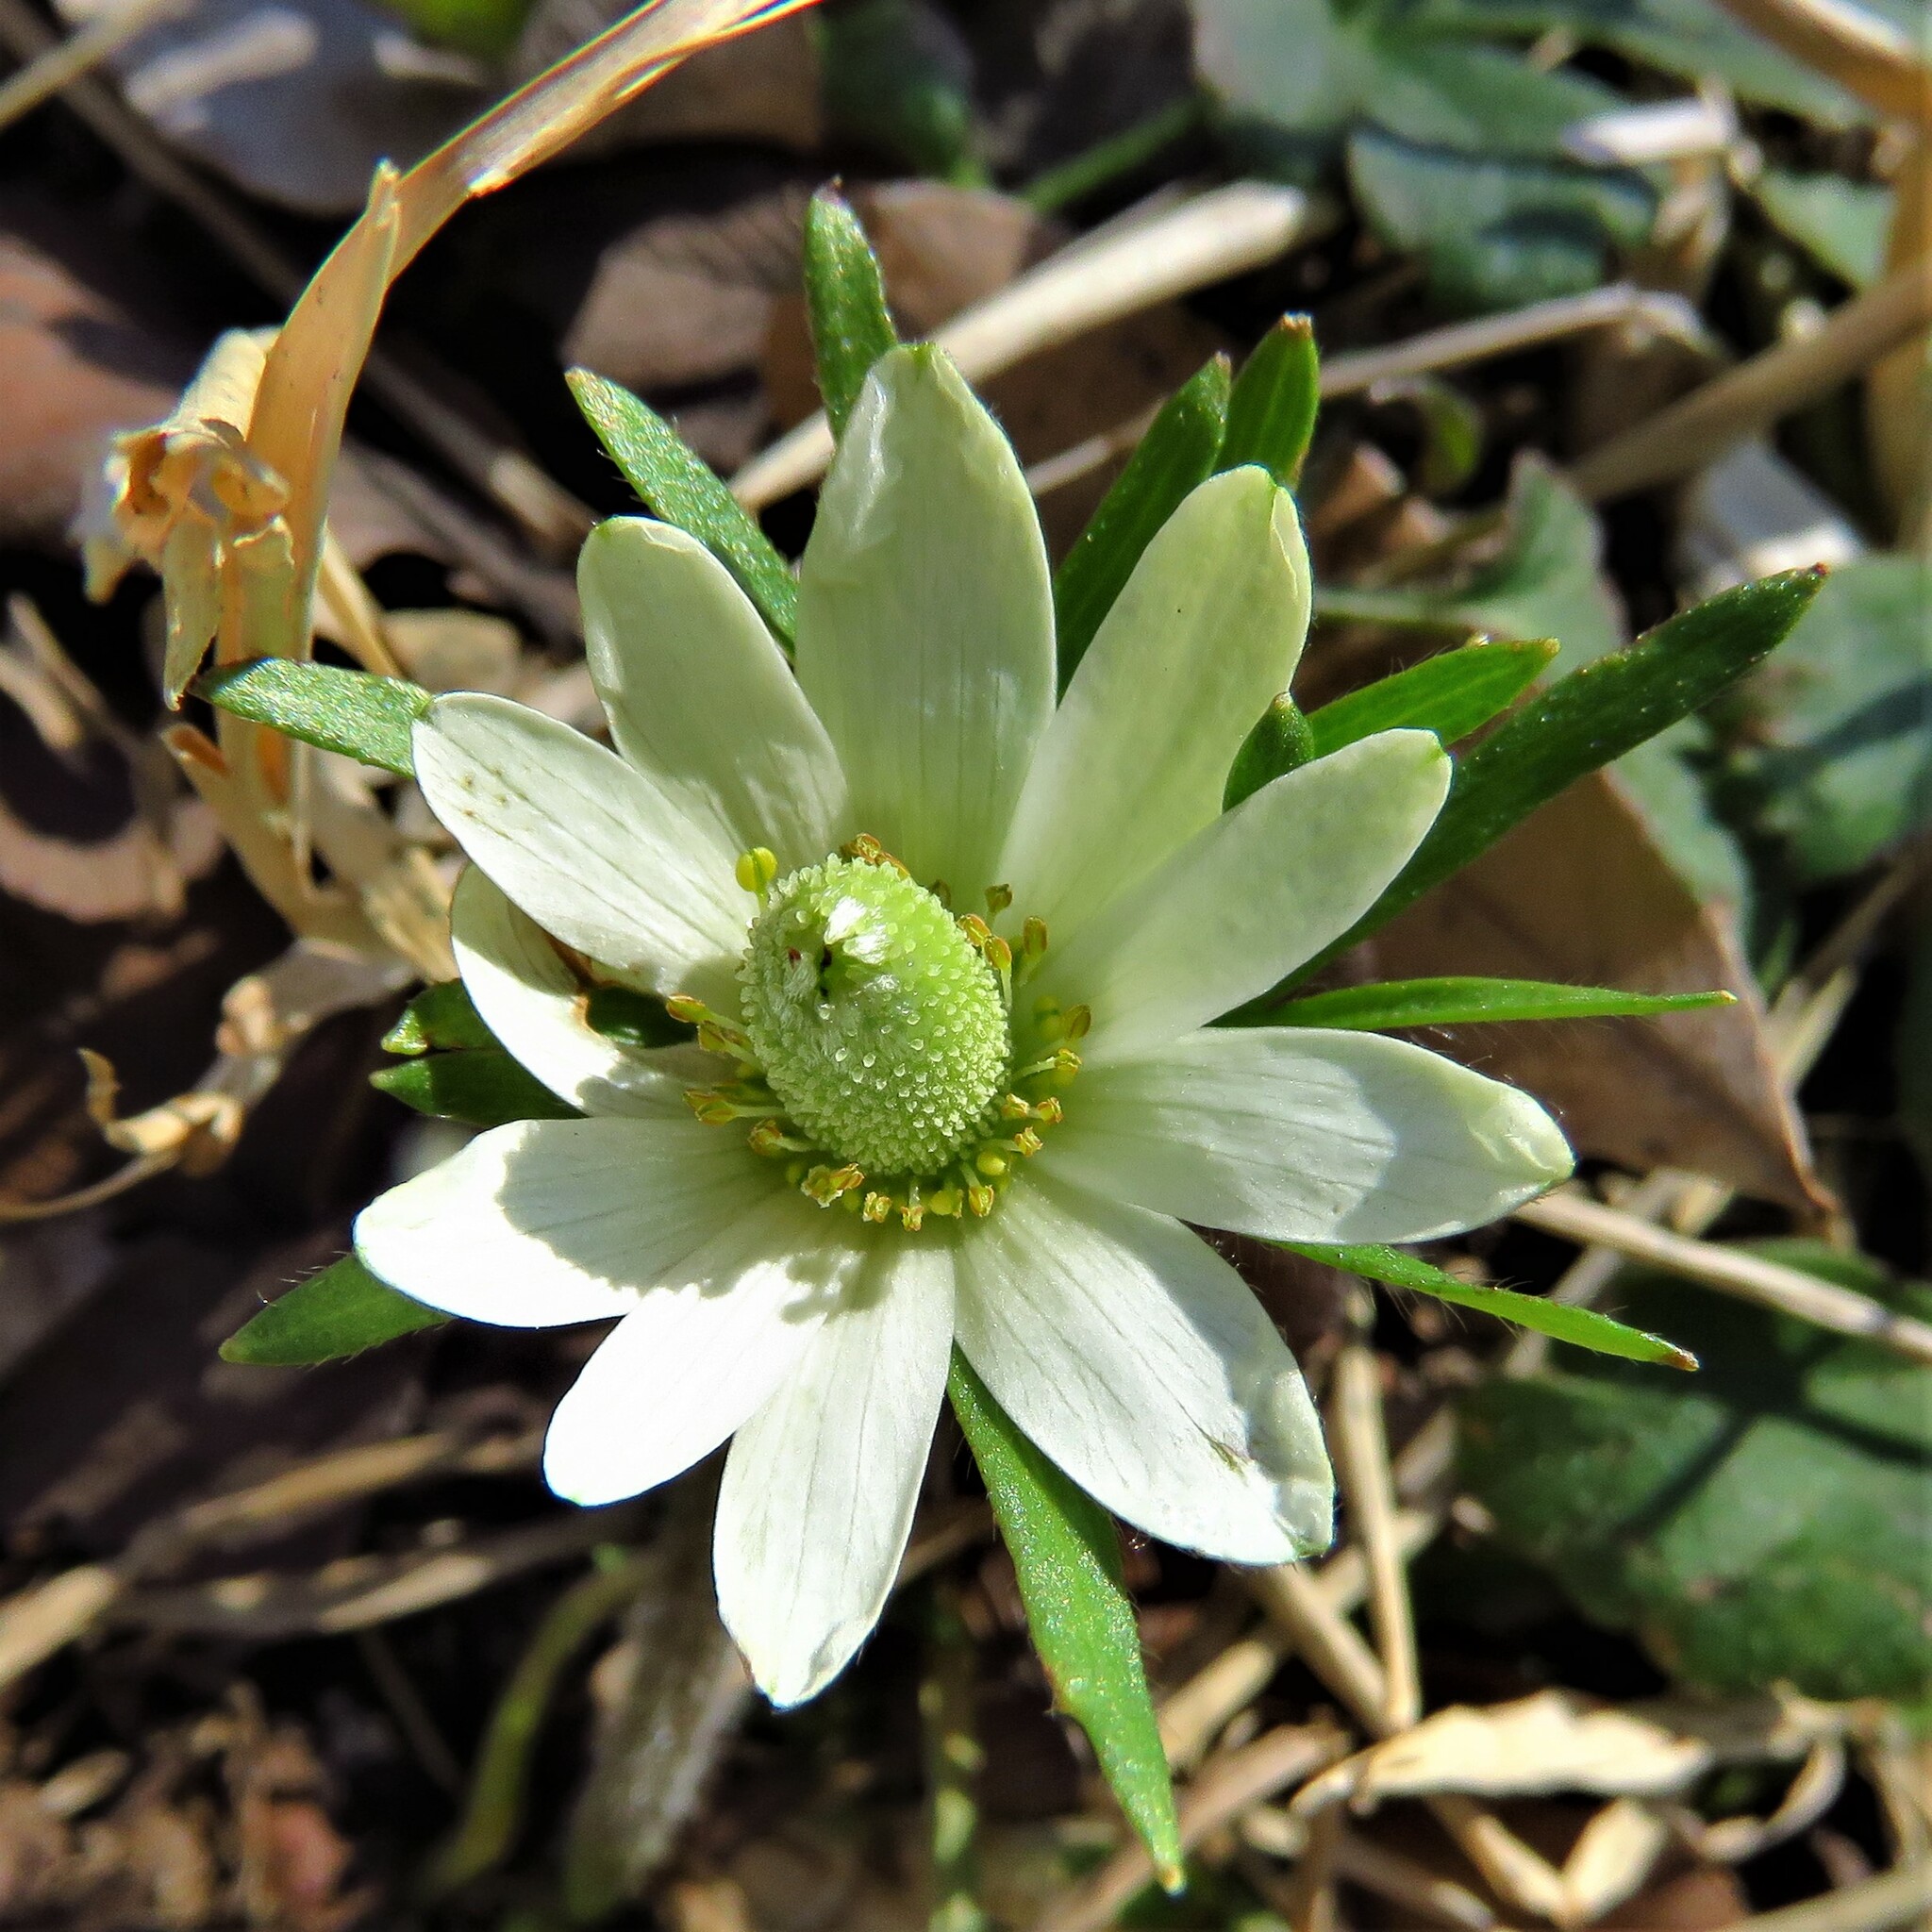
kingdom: Plantae
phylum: Tracheophyta
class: Magnoliopsida
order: Ranunculales
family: Ranunculaceae
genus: Anemone
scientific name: Anemone berlandieri
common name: Ten-petal anemone
